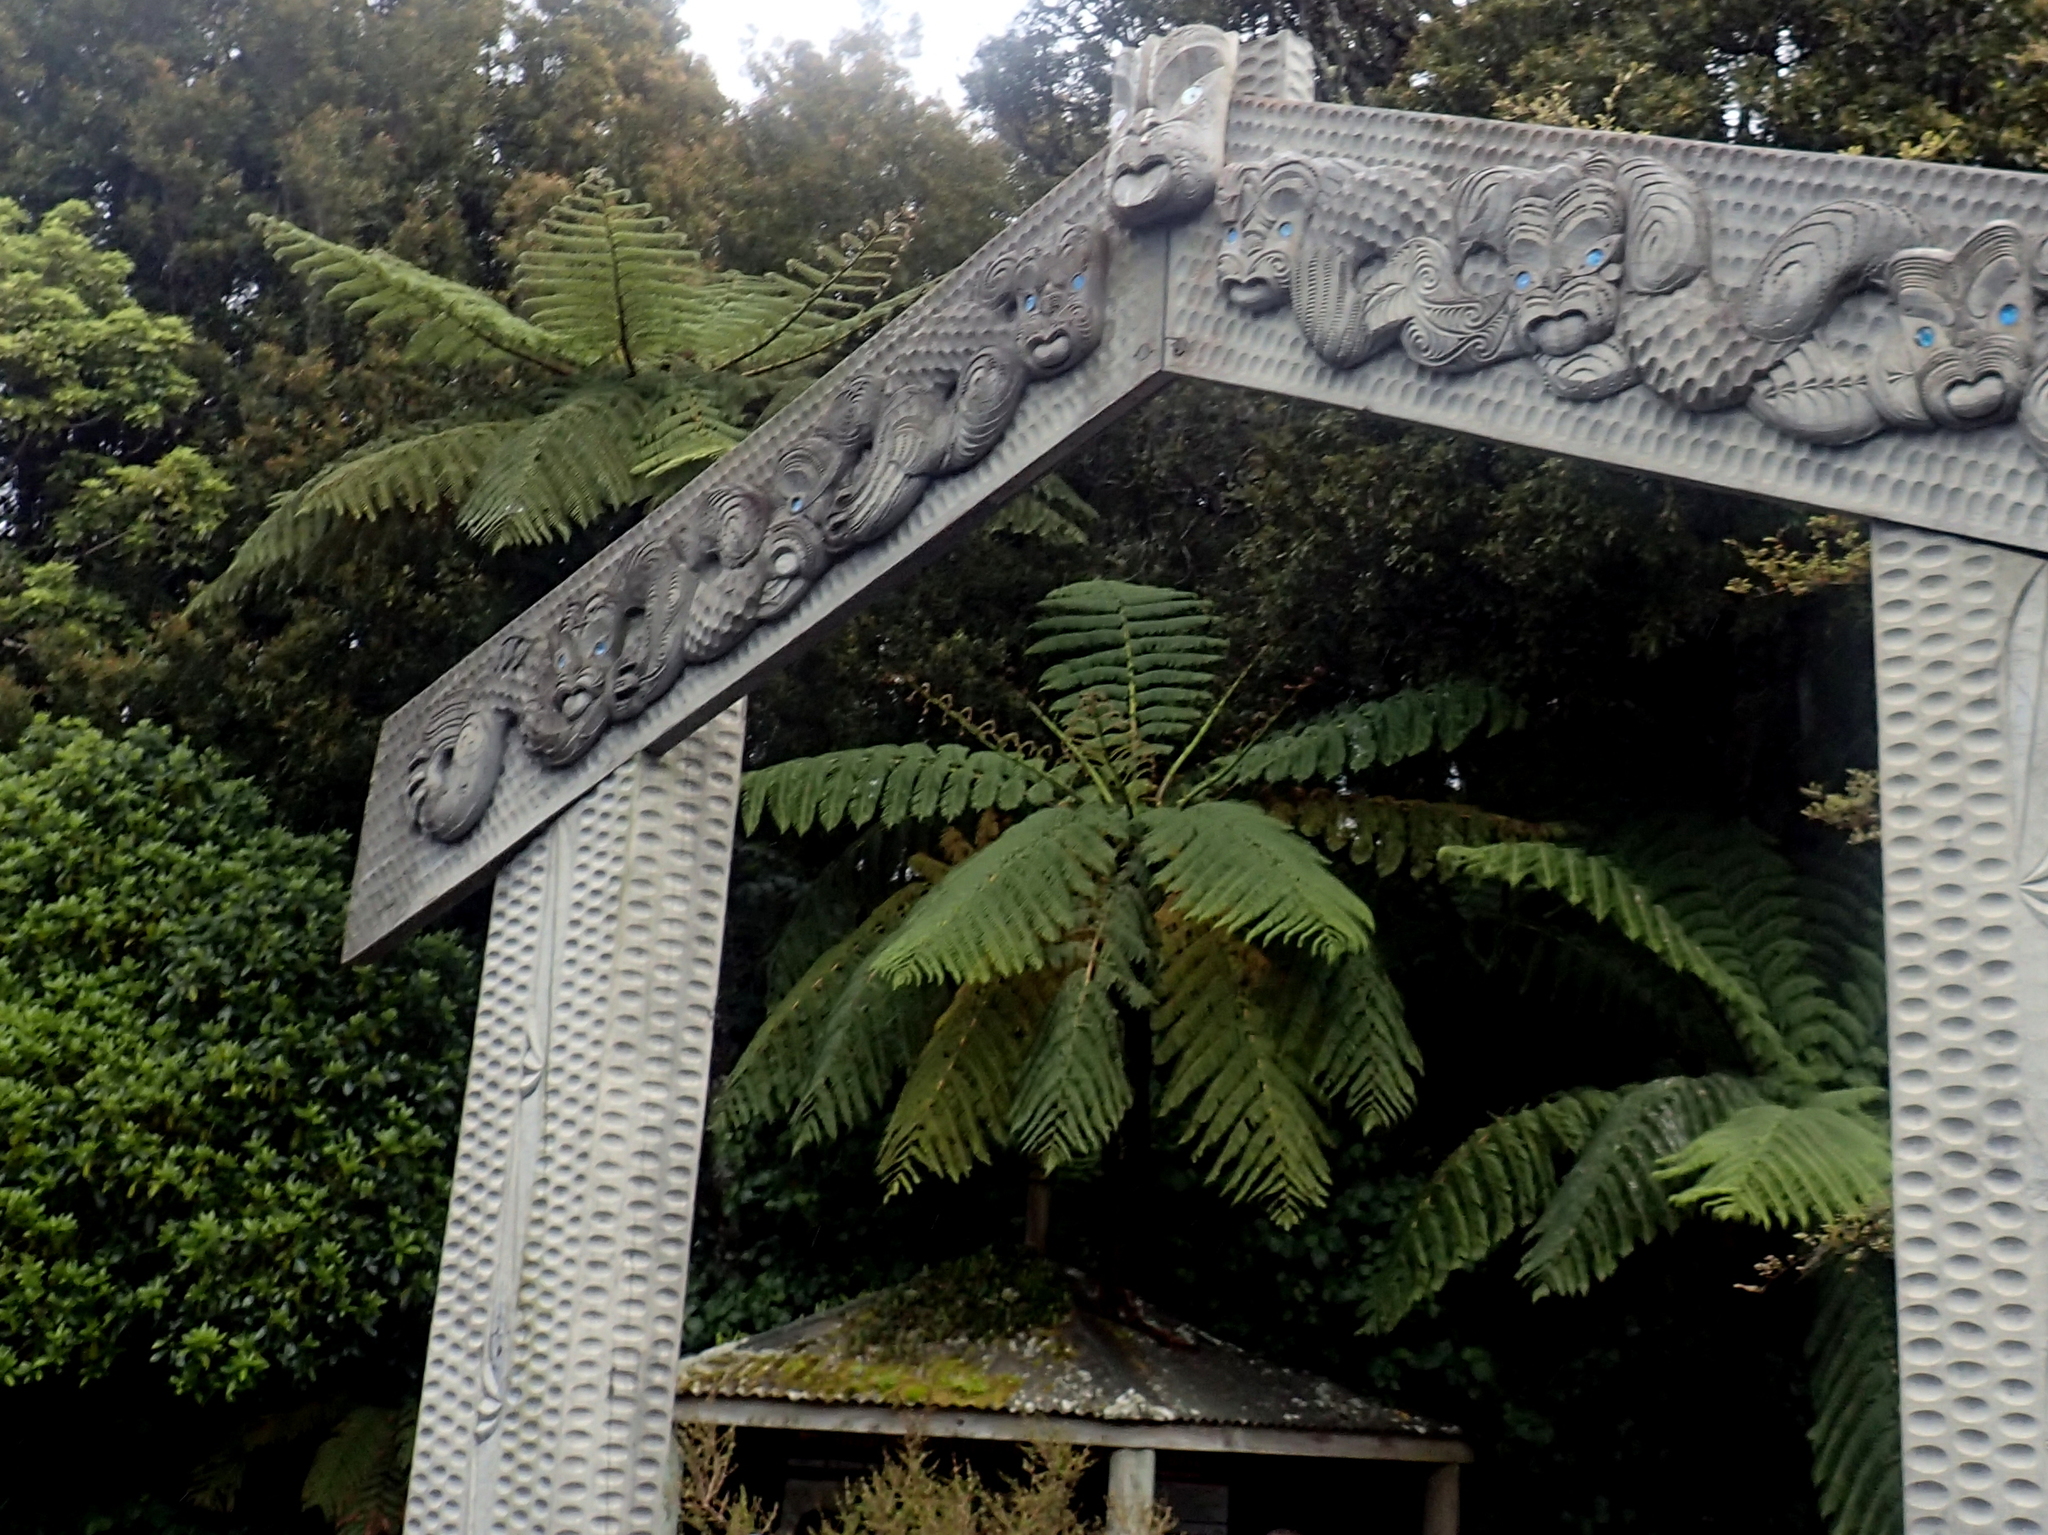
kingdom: Plantae
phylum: Tracheophyta
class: Polypodiopsida
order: Cyatheales
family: Cyatheaceae
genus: Sphaeropteris
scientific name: Sphaeropteris medullaris
